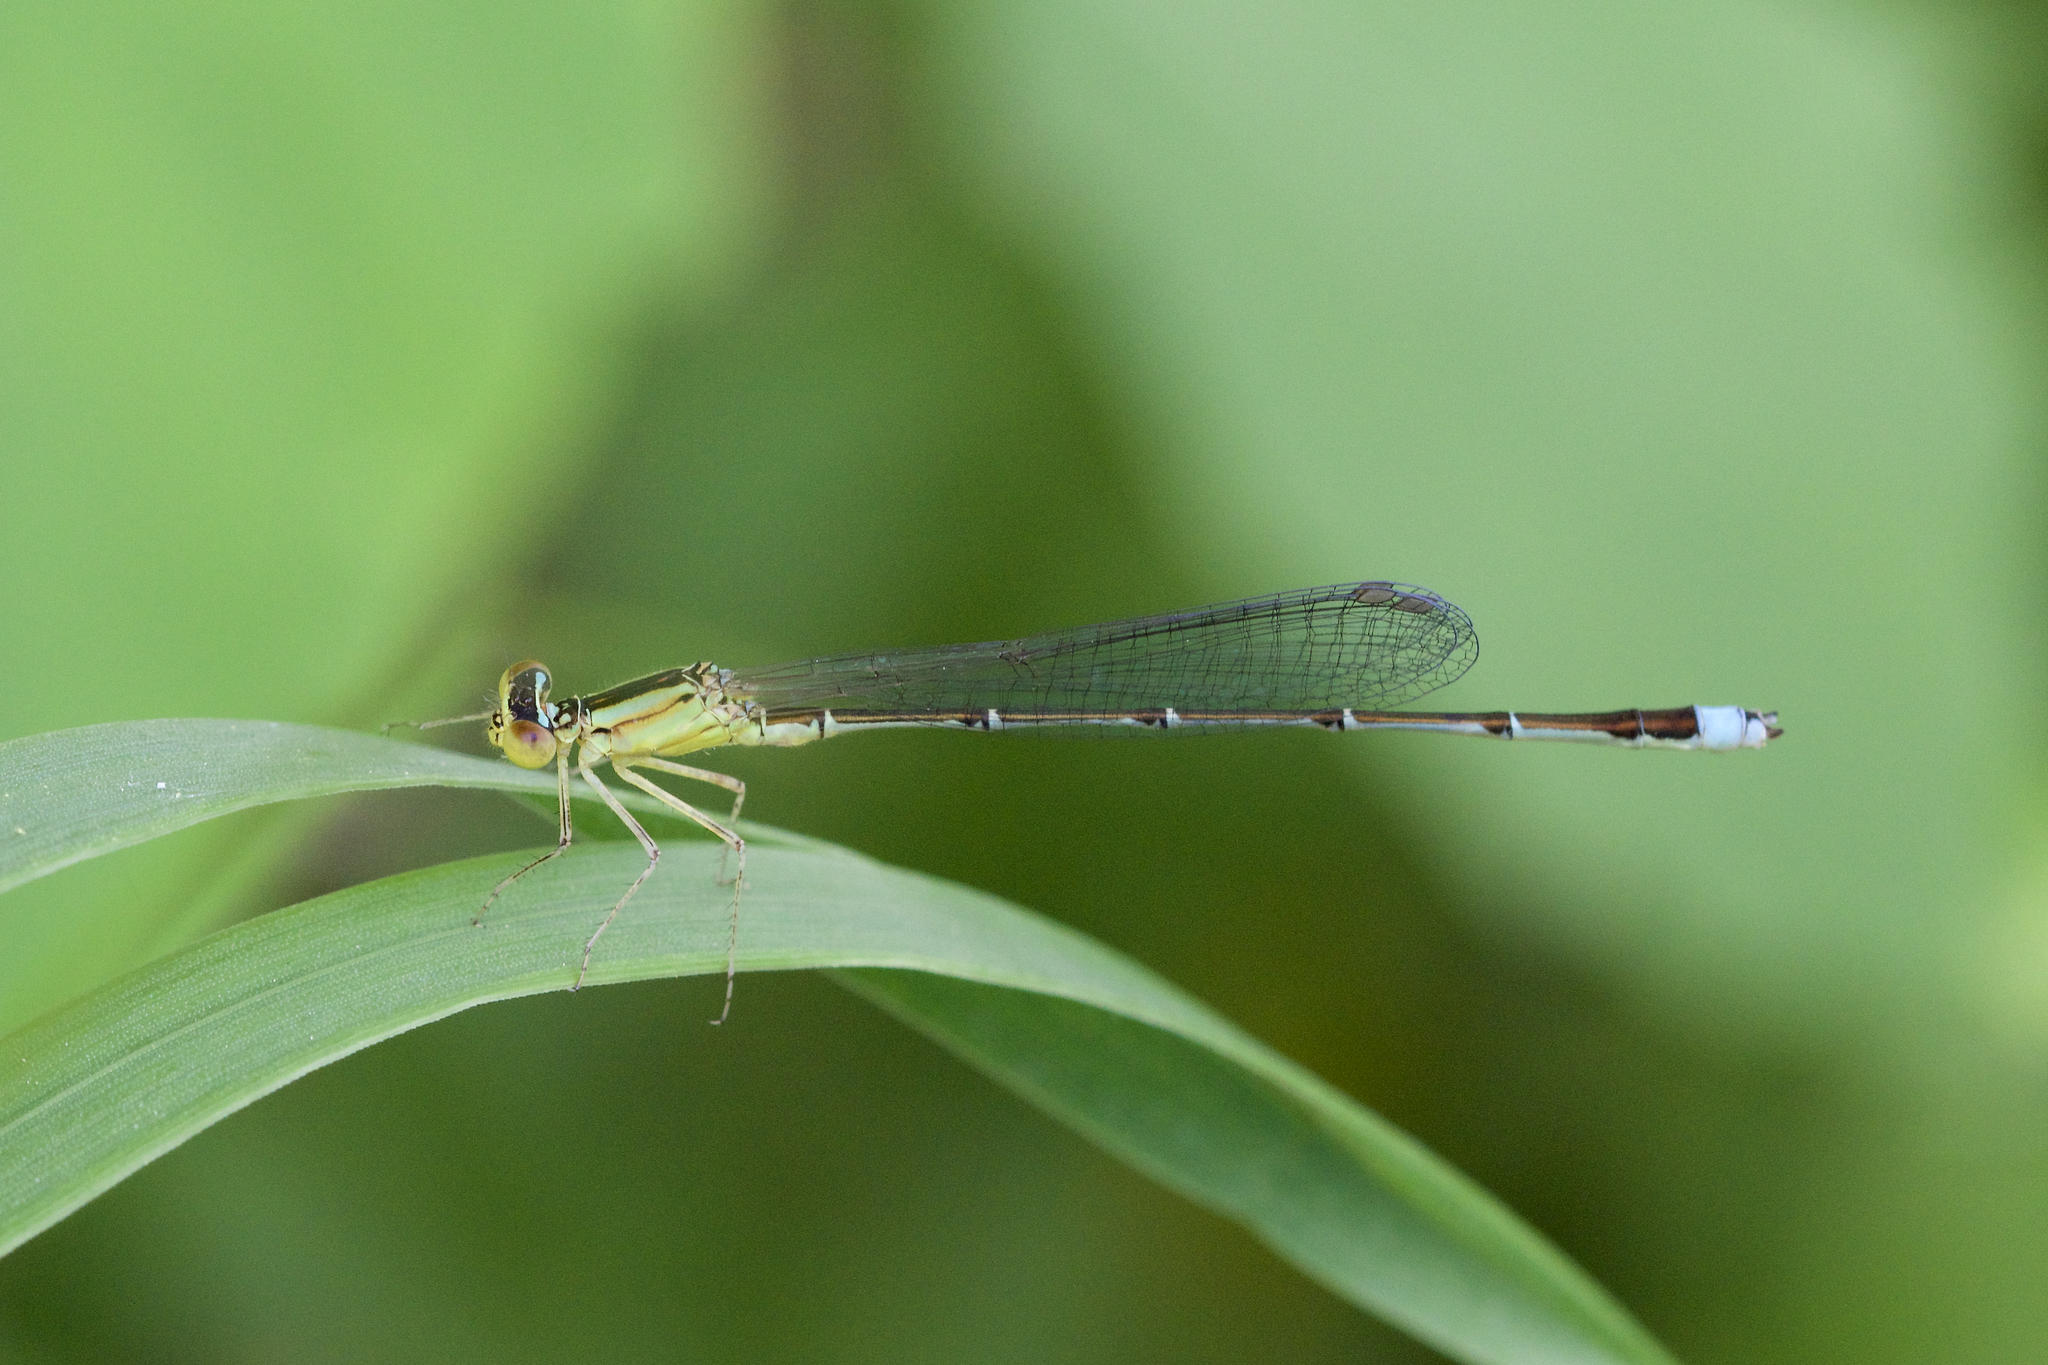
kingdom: Animalia
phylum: Arthropoda
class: Insecta
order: Odonata
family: Coenagrionidae
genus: Enallagma
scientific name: Enallagma vesperum
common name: Vesper bluet
